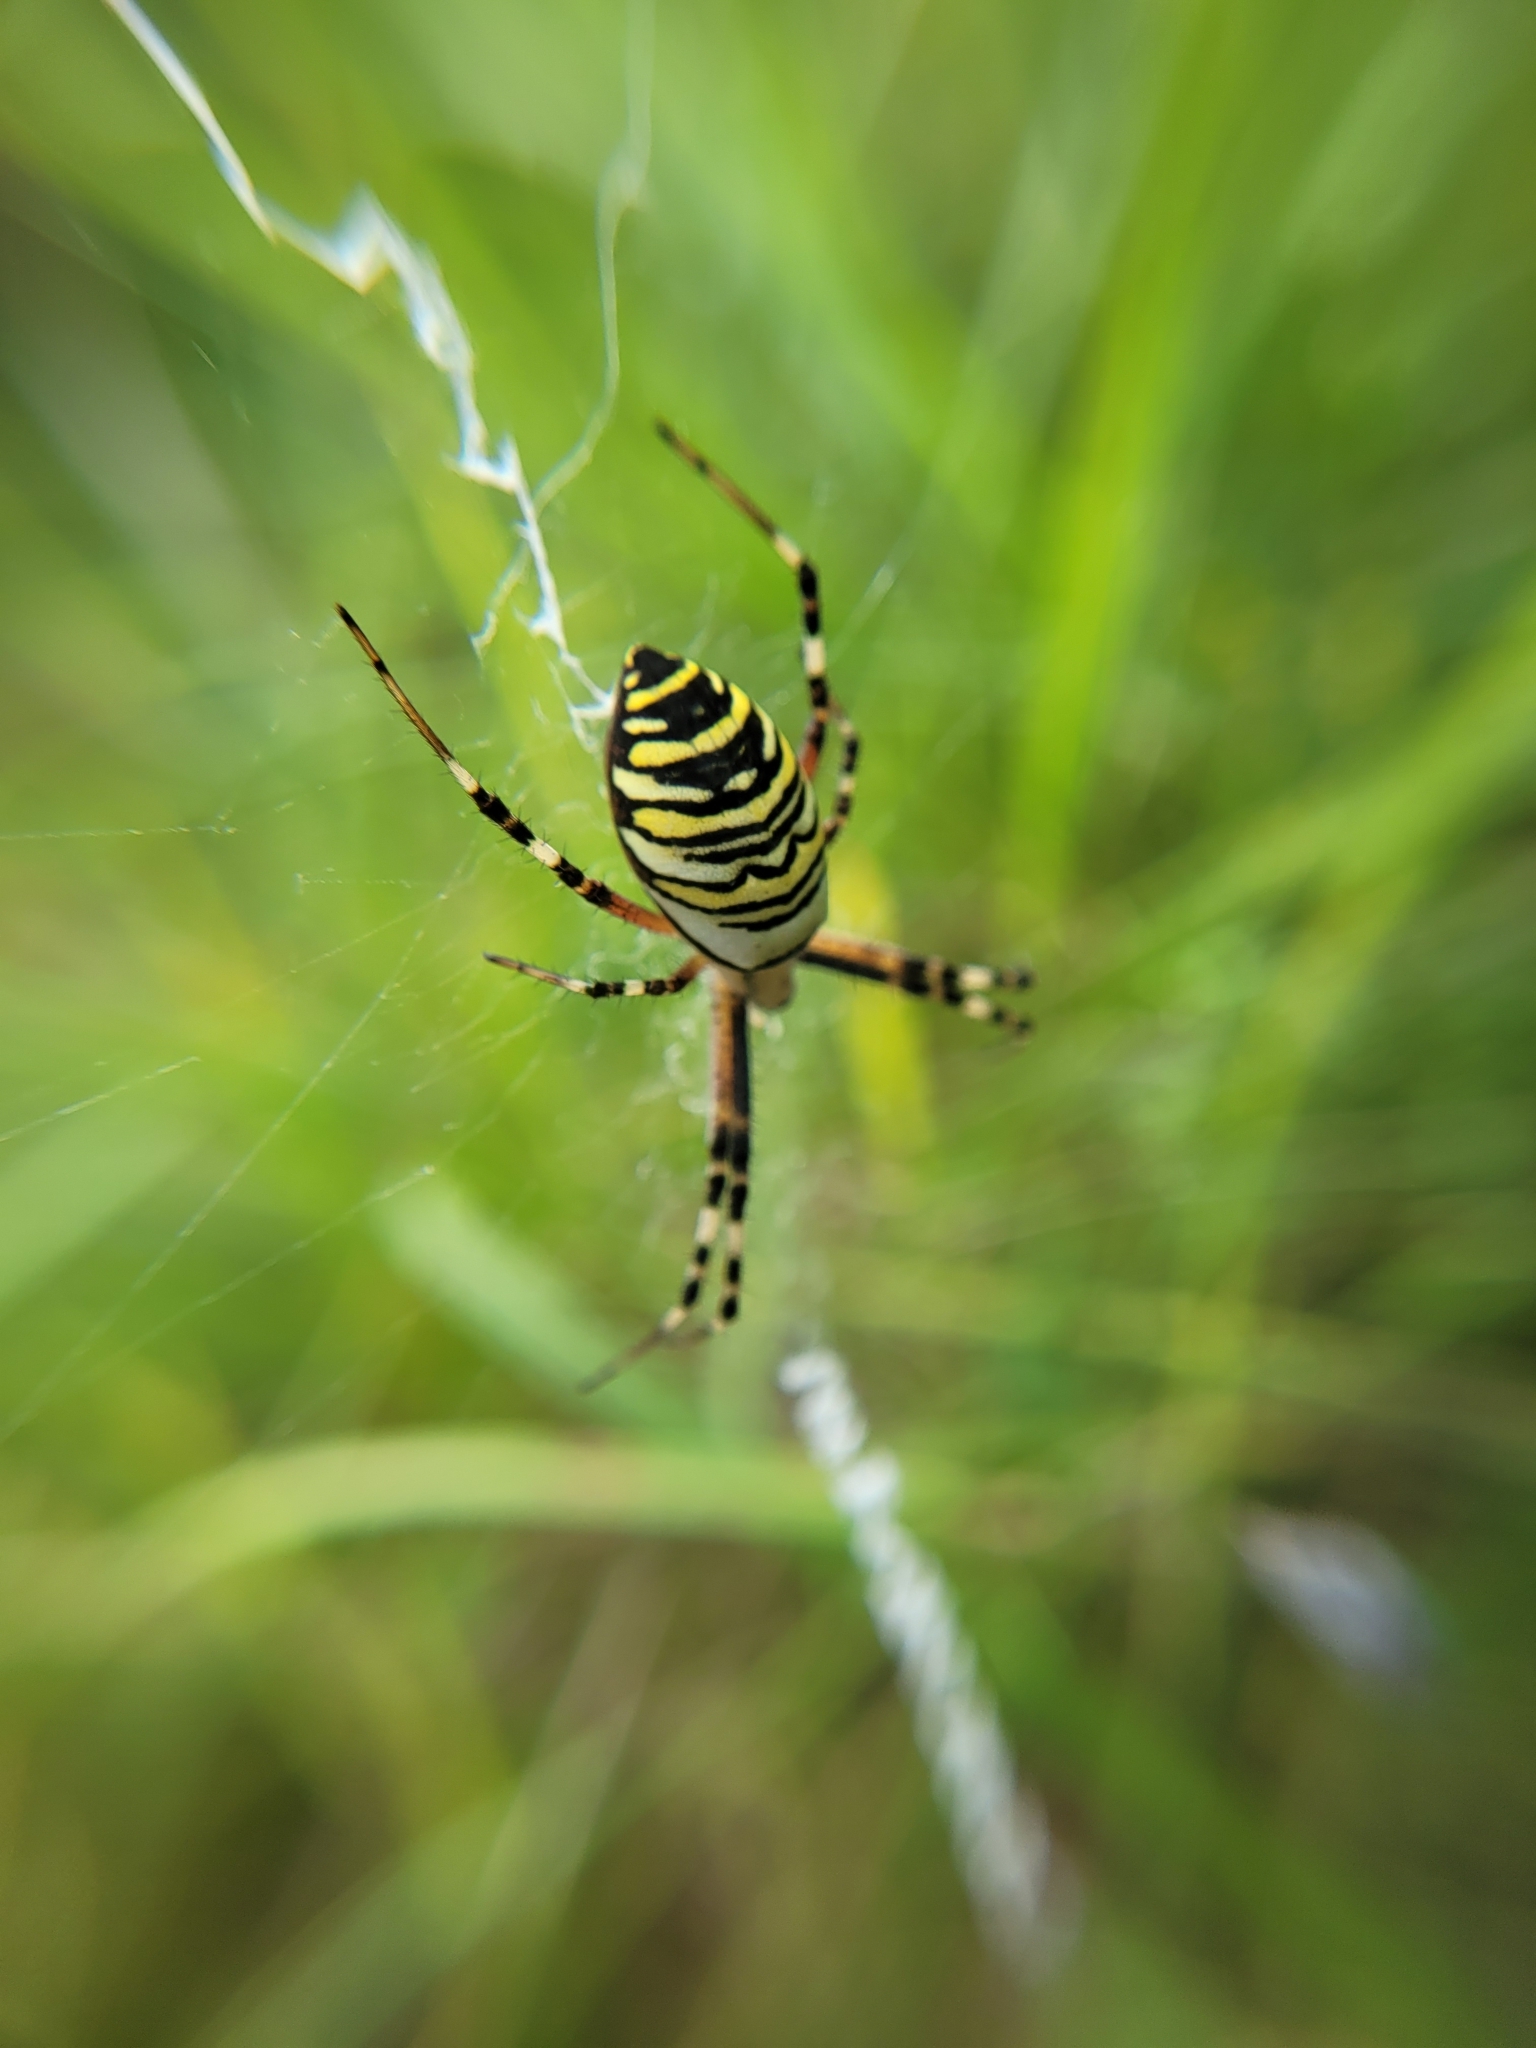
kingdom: Animalia
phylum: Arthropoda
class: Arachnida
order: Araneae
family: Araneidae
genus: Argiope
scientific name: Argiope bruennichi
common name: Wasp spider
